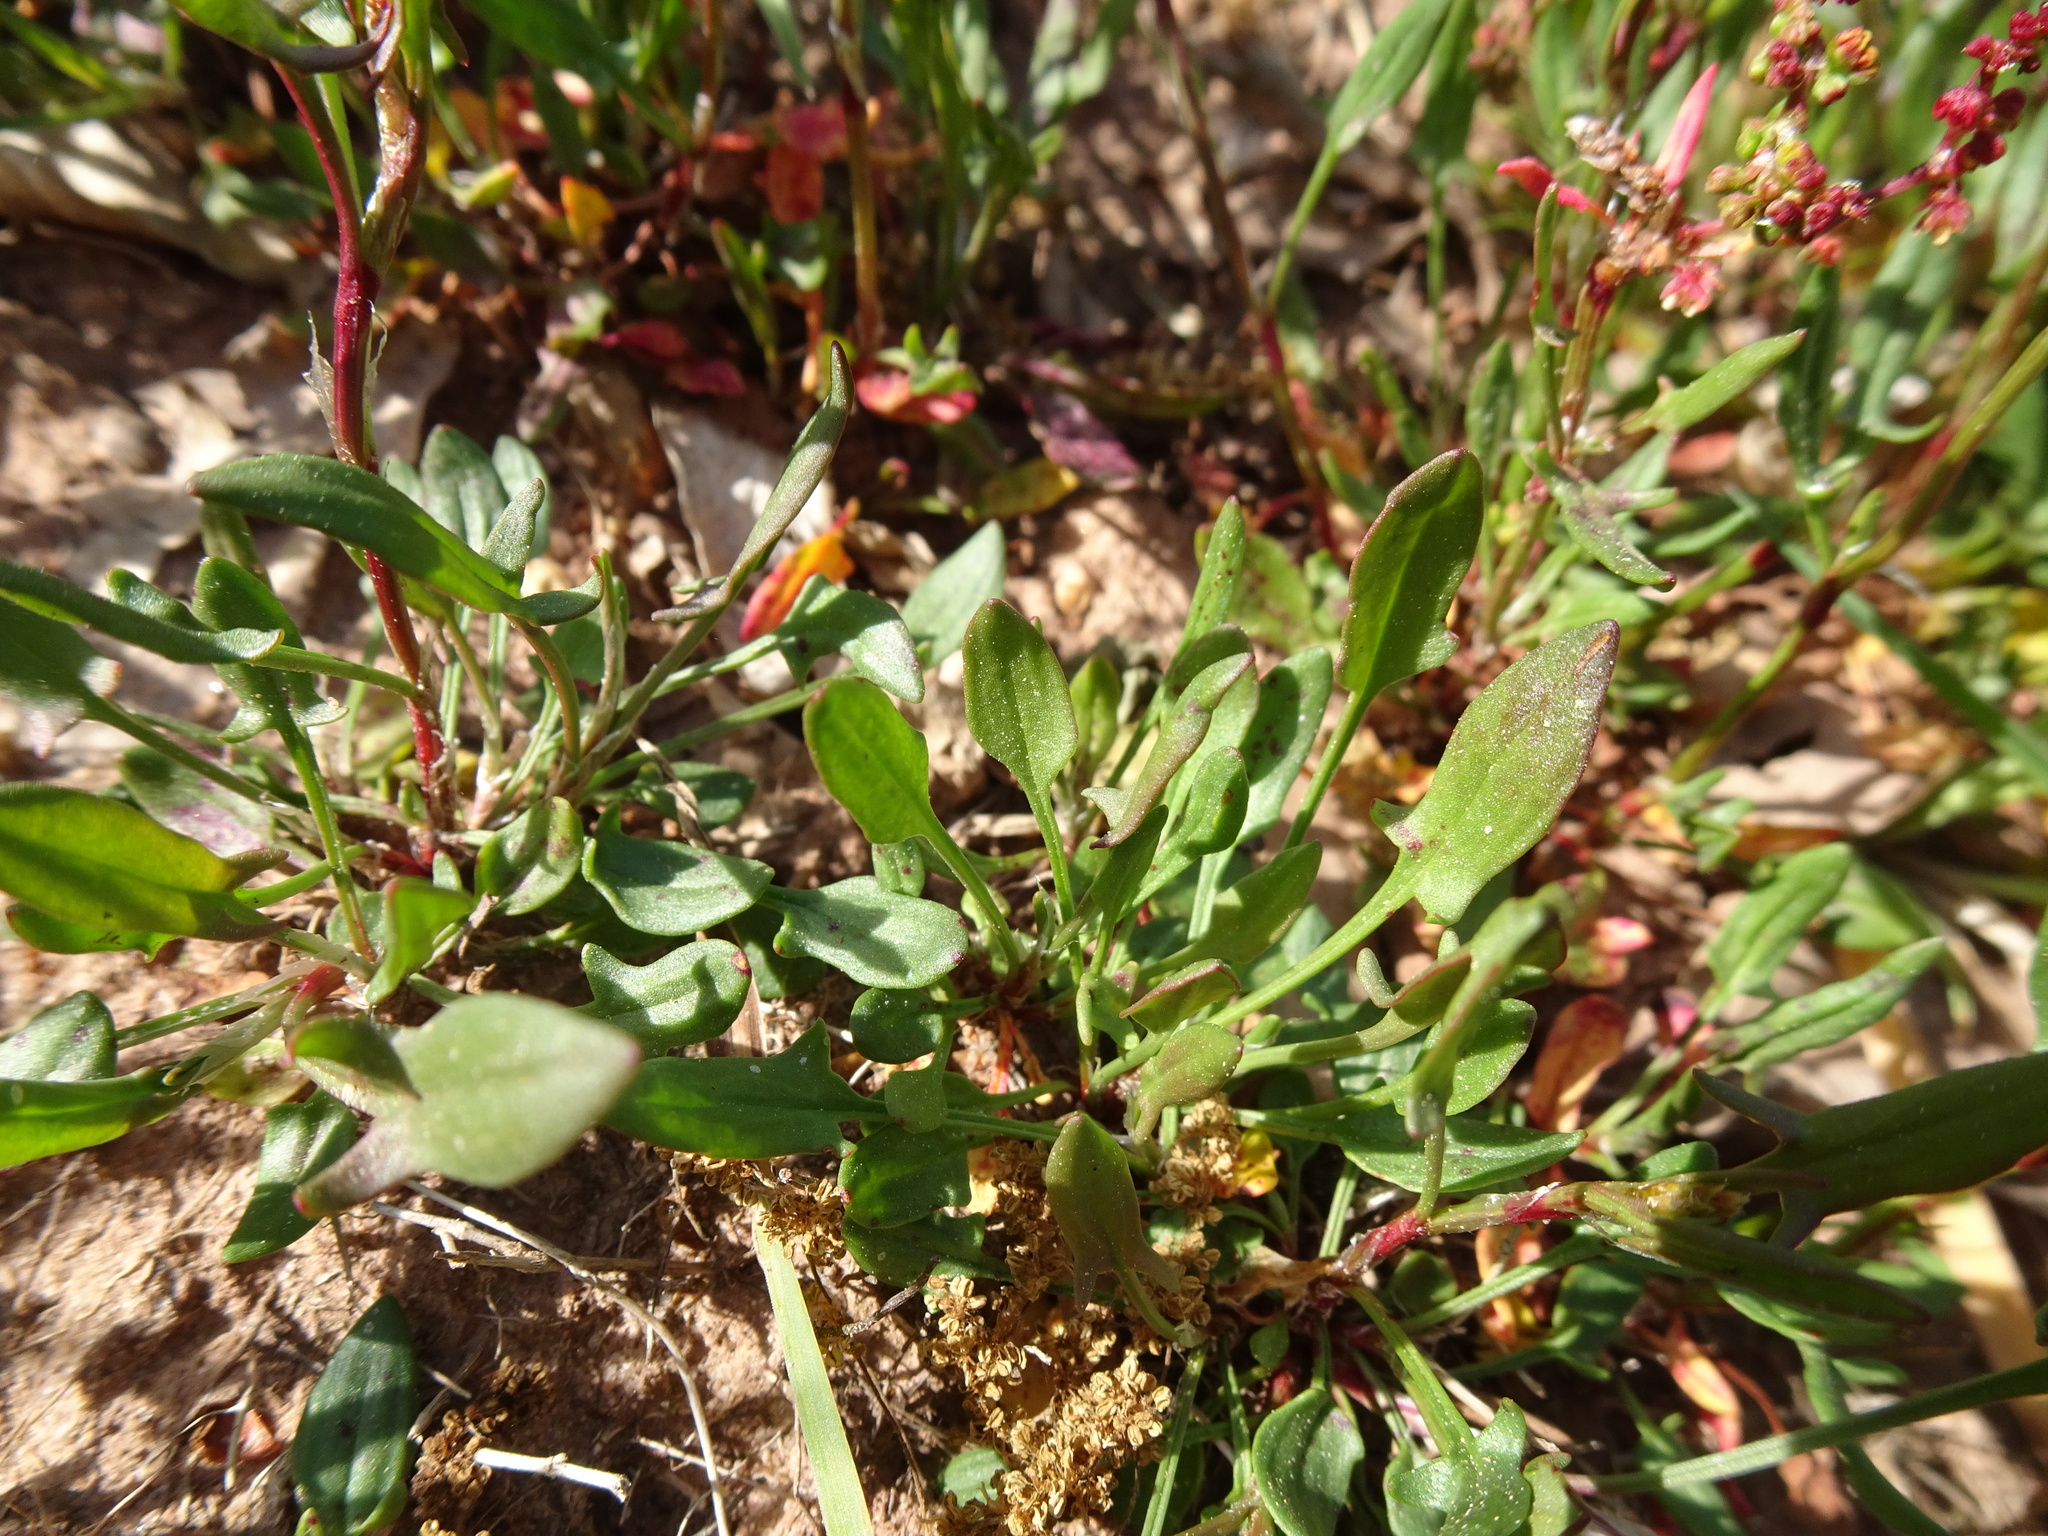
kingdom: Plantae
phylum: Tracheophyta
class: Magnoliopsida
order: Caryophyllales
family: Polygonaceae
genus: Rumex
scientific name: Rumex acetosella
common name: Common sheep sorrel
